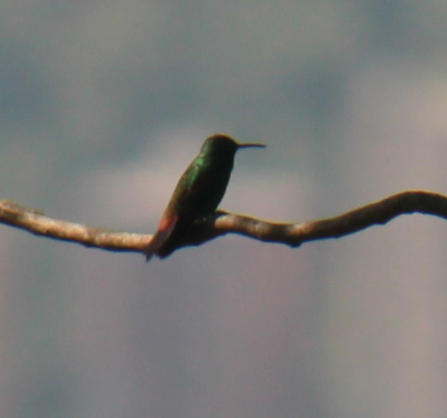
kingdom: Animalia
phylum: Chordata
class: Aves
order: Apodiformes
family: Trochilidae
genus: Saucerottia
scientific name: Saucerottia tobaci
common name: Copper-rumped hummingbird
